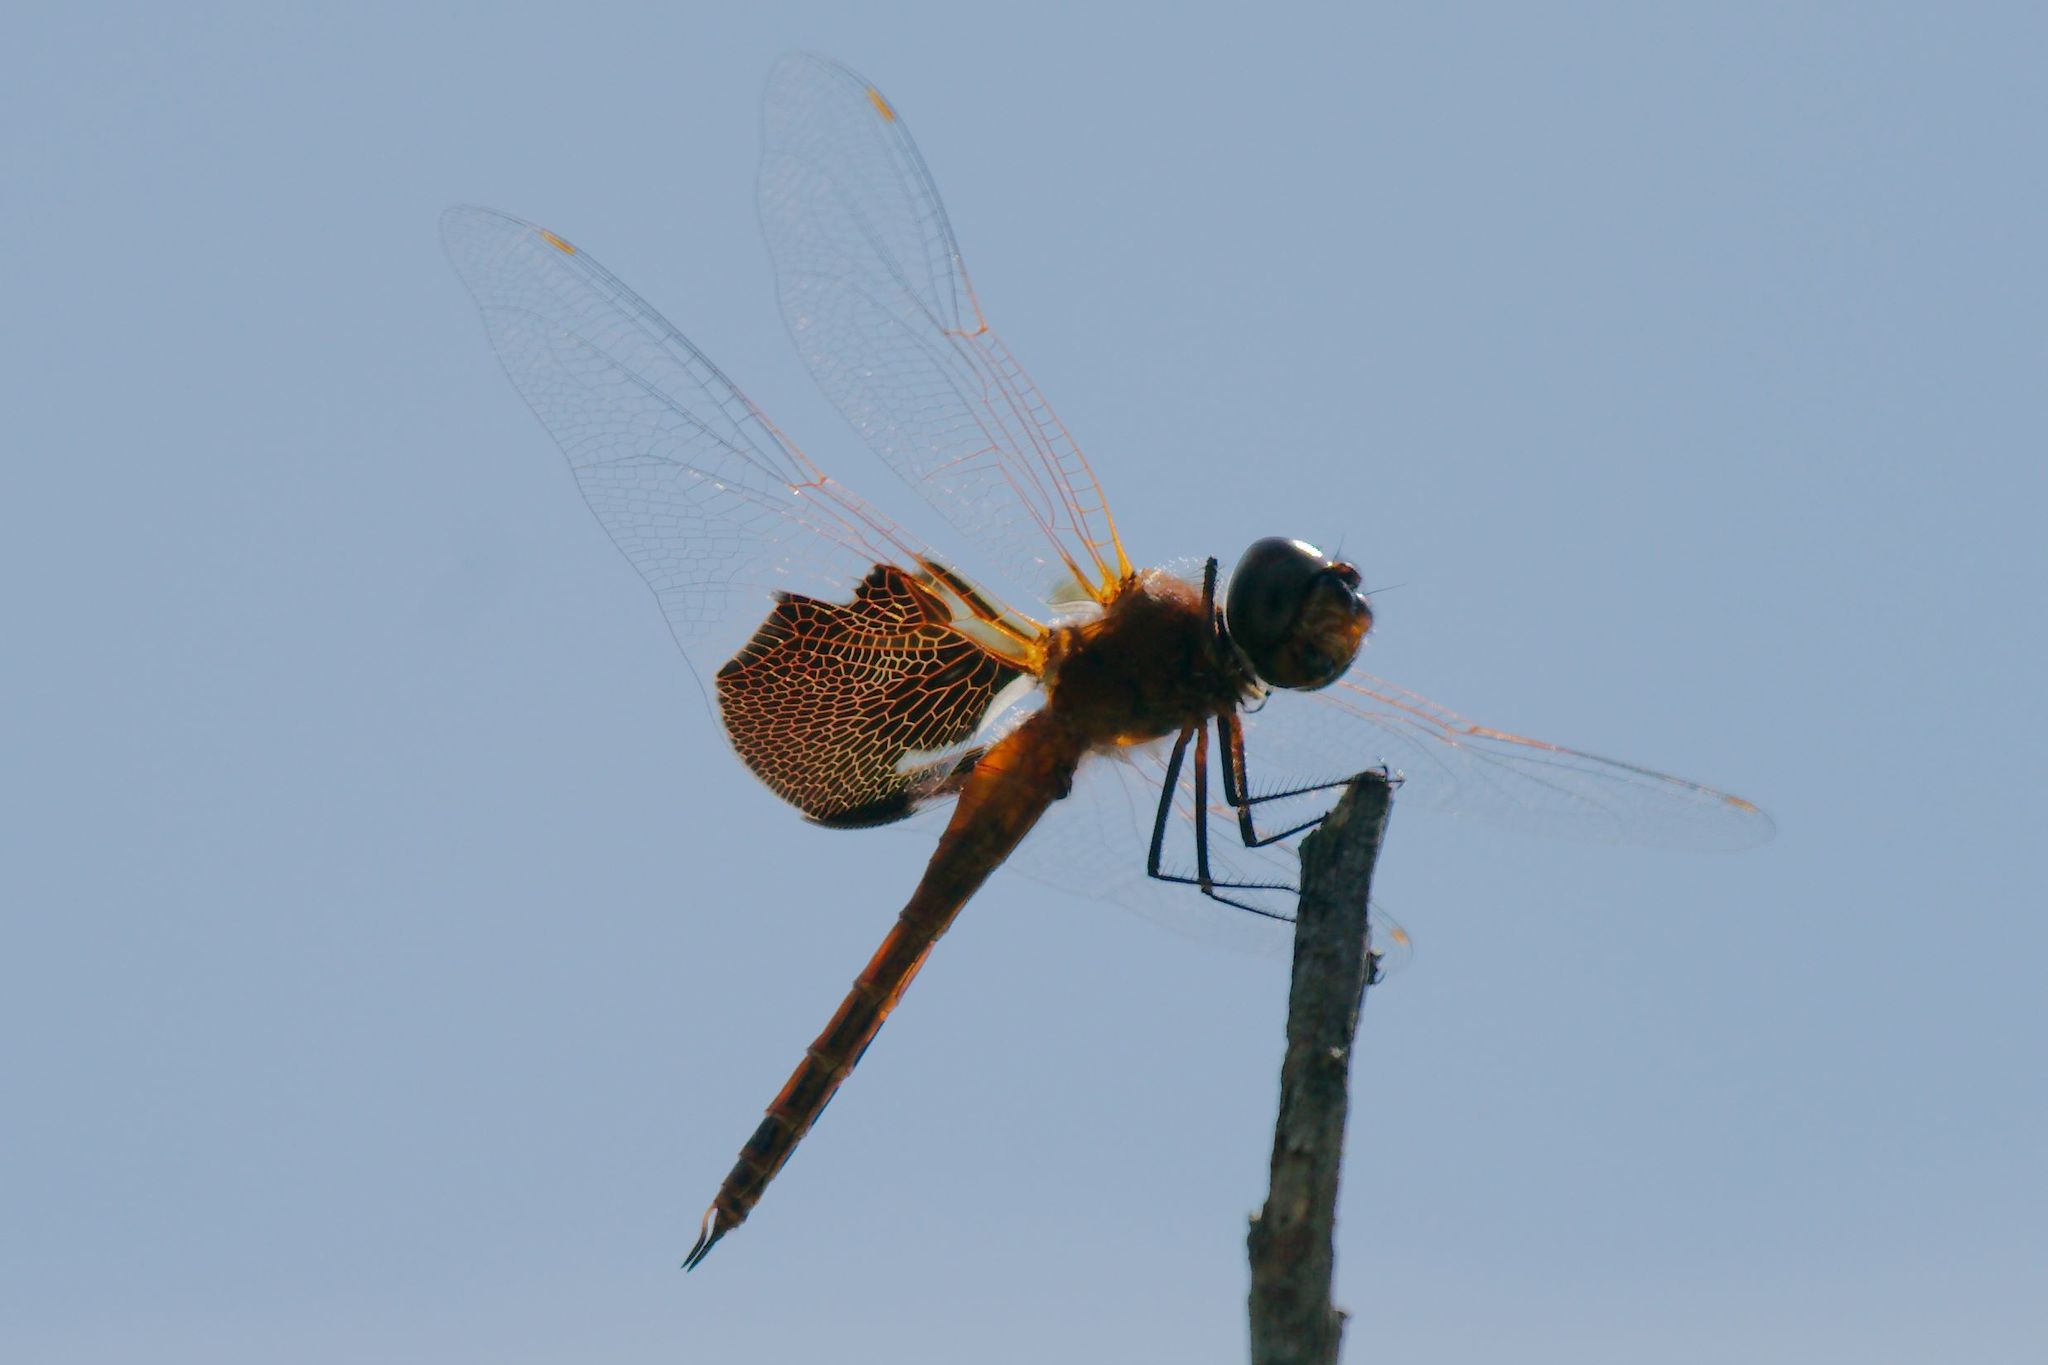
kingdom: Animalia
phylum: Arthropoda
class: Insecta
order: Odonata
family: Libellulidae
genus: Tramea
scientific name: Tramea carolina
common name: Carolina saddlebags
